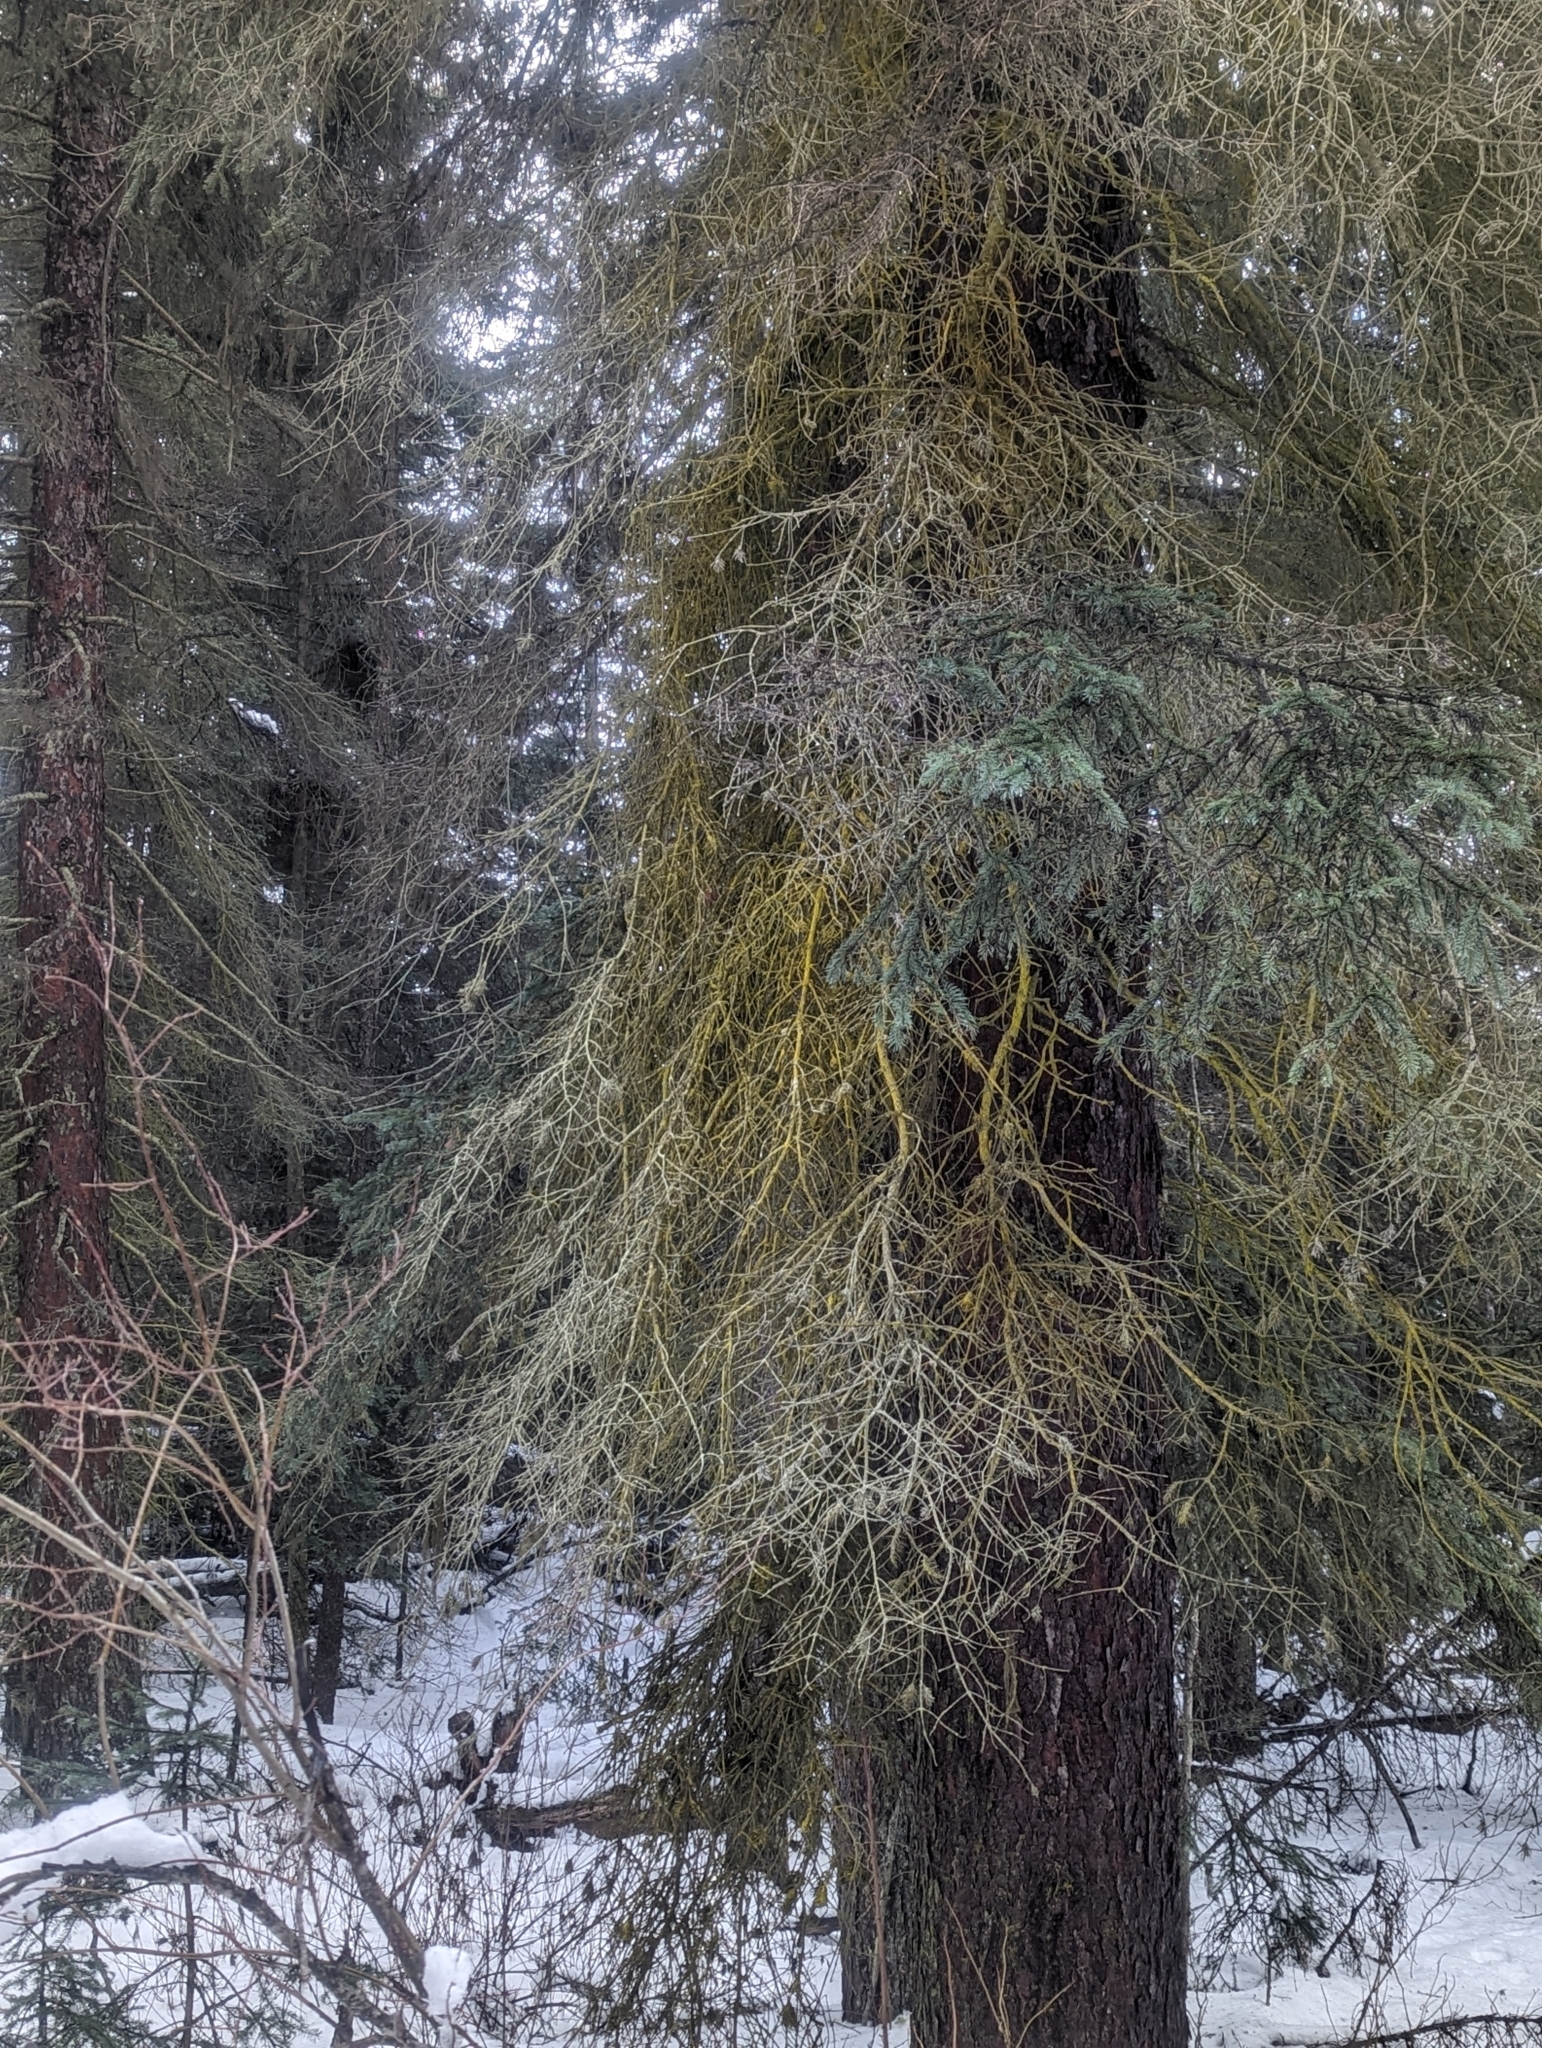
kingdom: Fungi
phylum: Ascomycota
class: Arthoniomycetes
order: Arthoniales
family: Chrysotrichaceae
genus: Chrysothrix
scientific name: Chrysothrix candelaris
